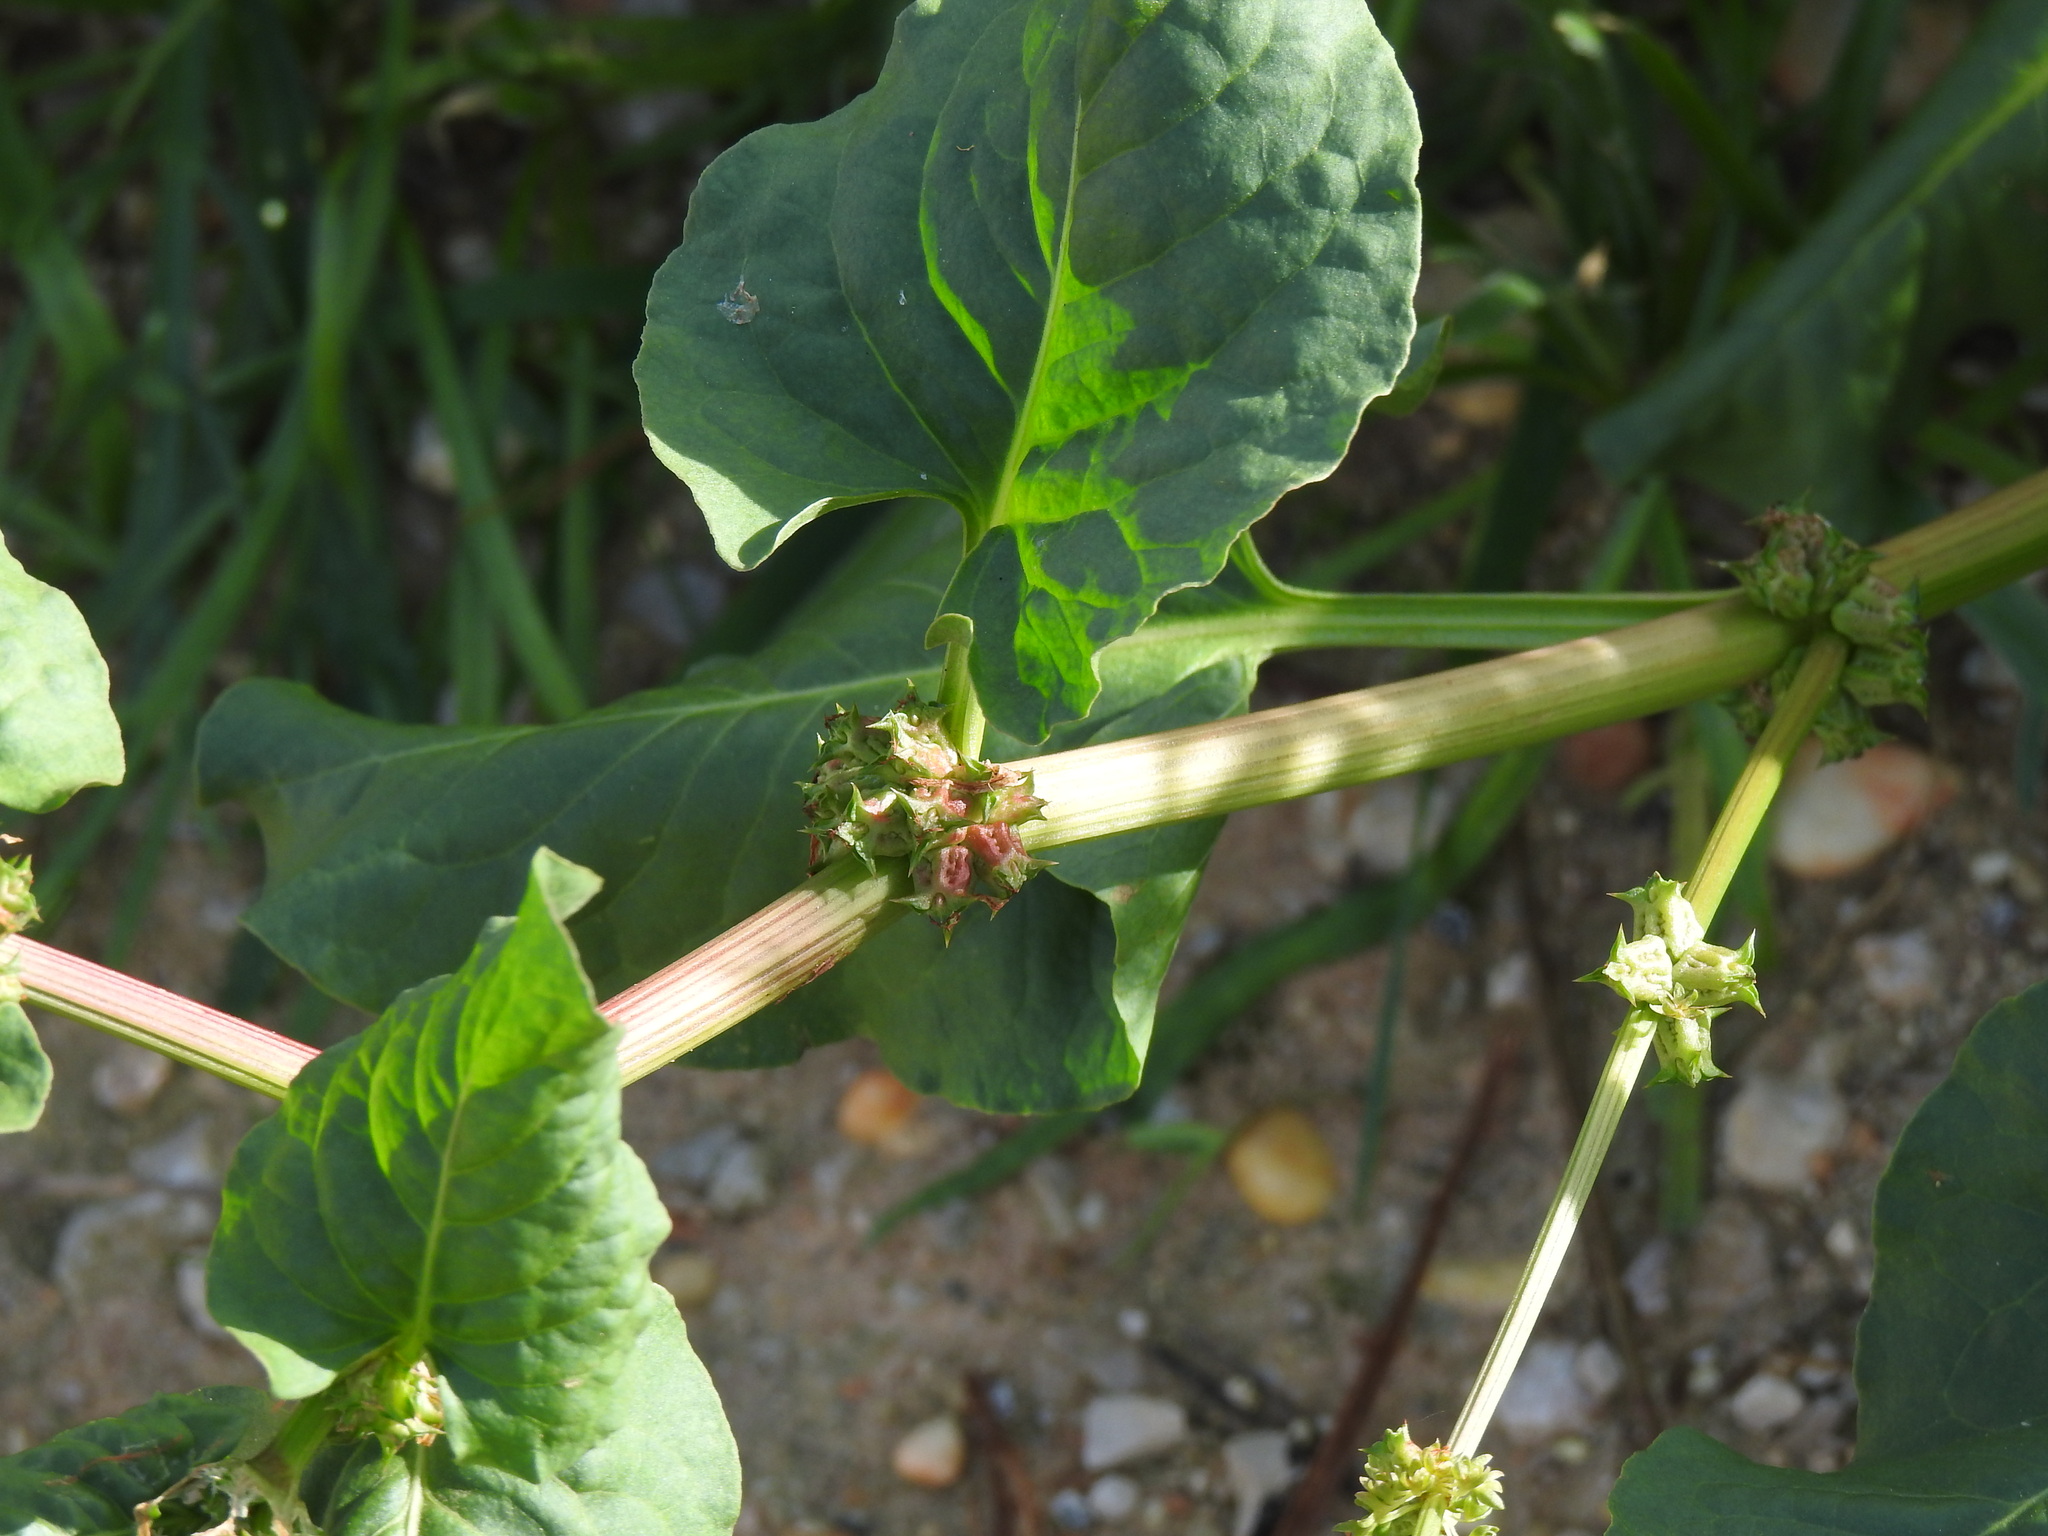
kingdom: Plantae
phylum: Tracheophyta
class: Magnoliopsida
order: Caryophyllales
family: Polygonaceae
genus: Rumex
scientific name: Rumex spinosus
